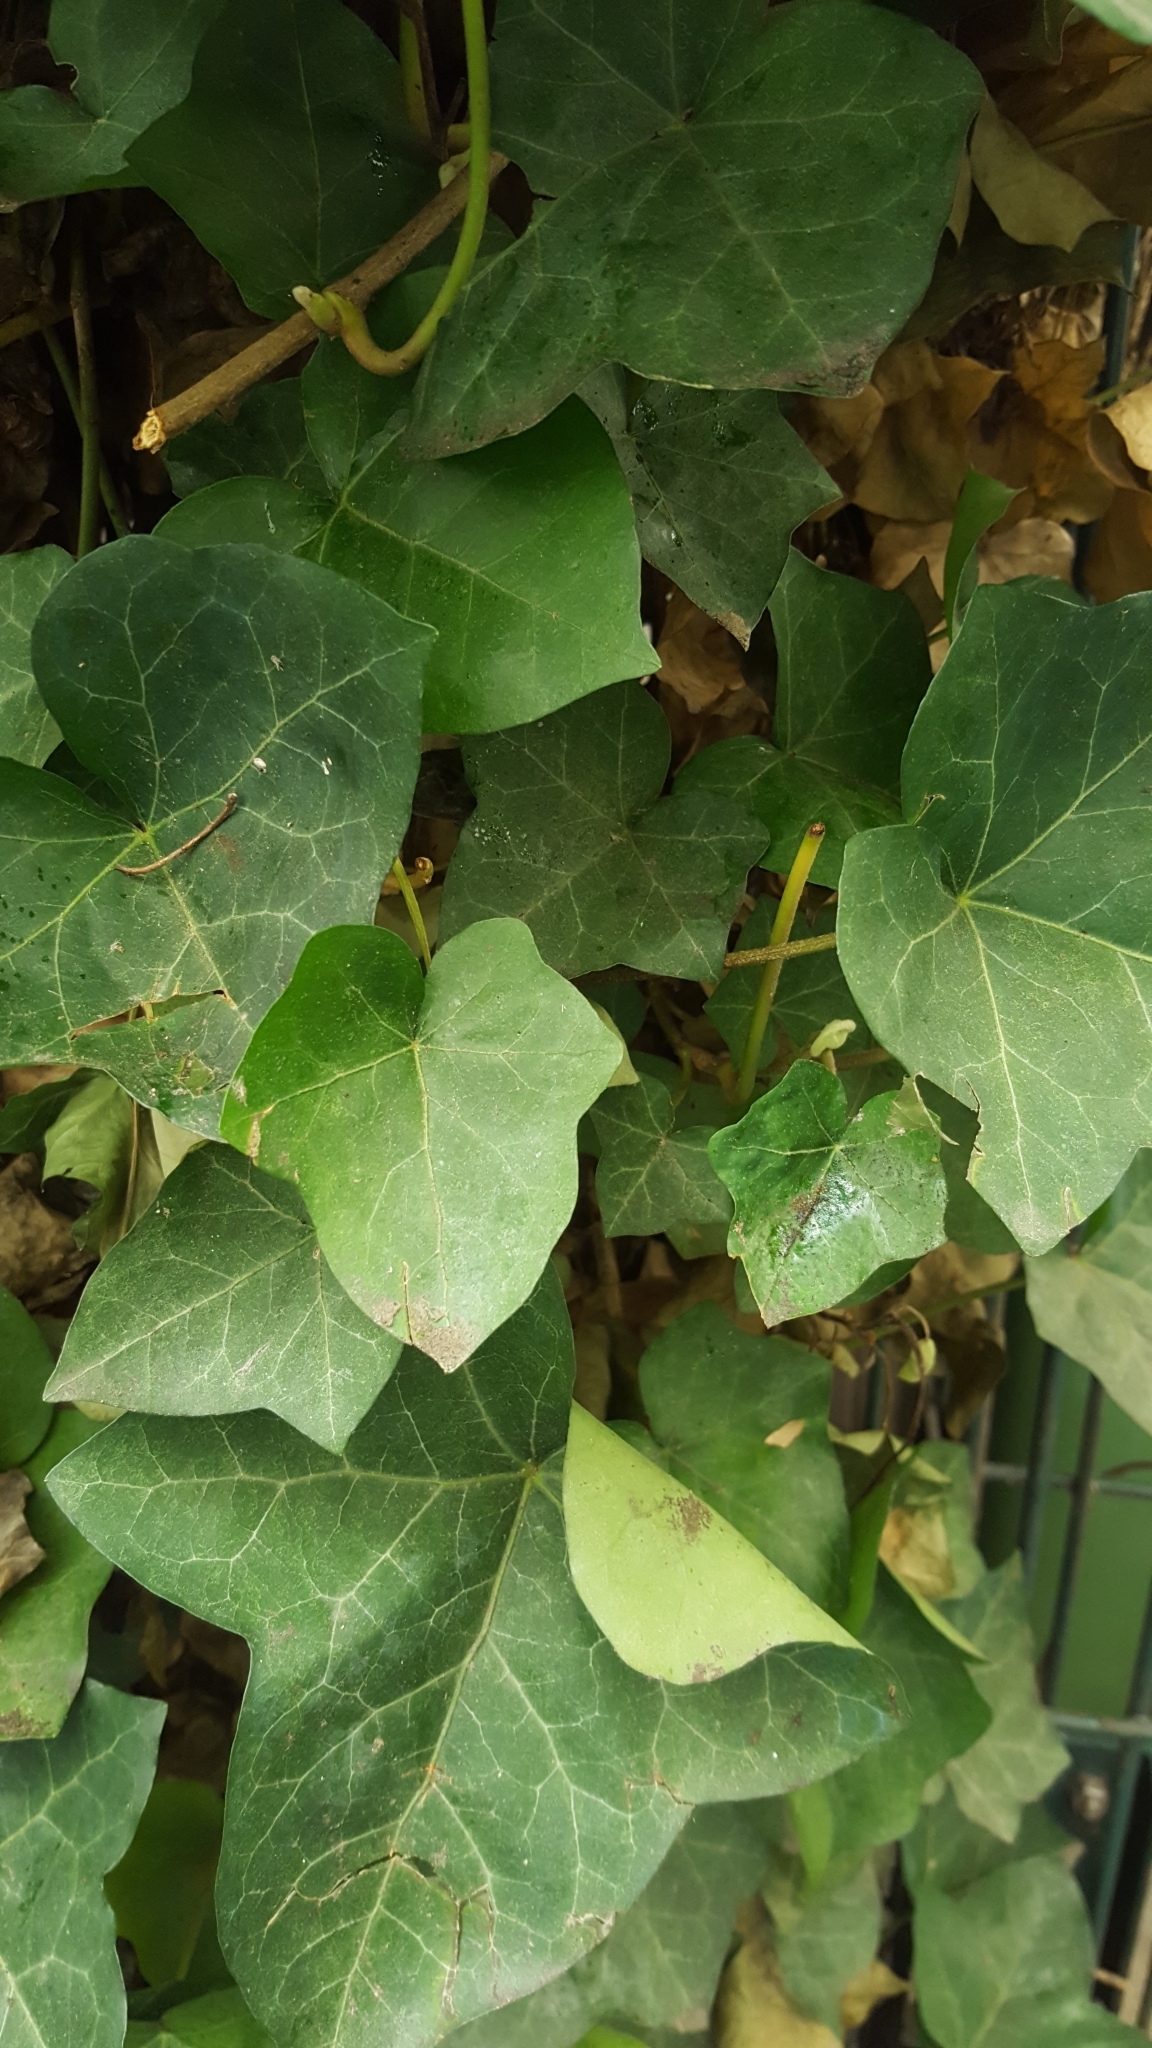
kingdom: Plantae
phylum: Tracheophyta
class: Magnoliopsida
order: Apiales
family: Araliaceae
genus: Hedera
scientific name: Hedera helix
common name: Ivy
